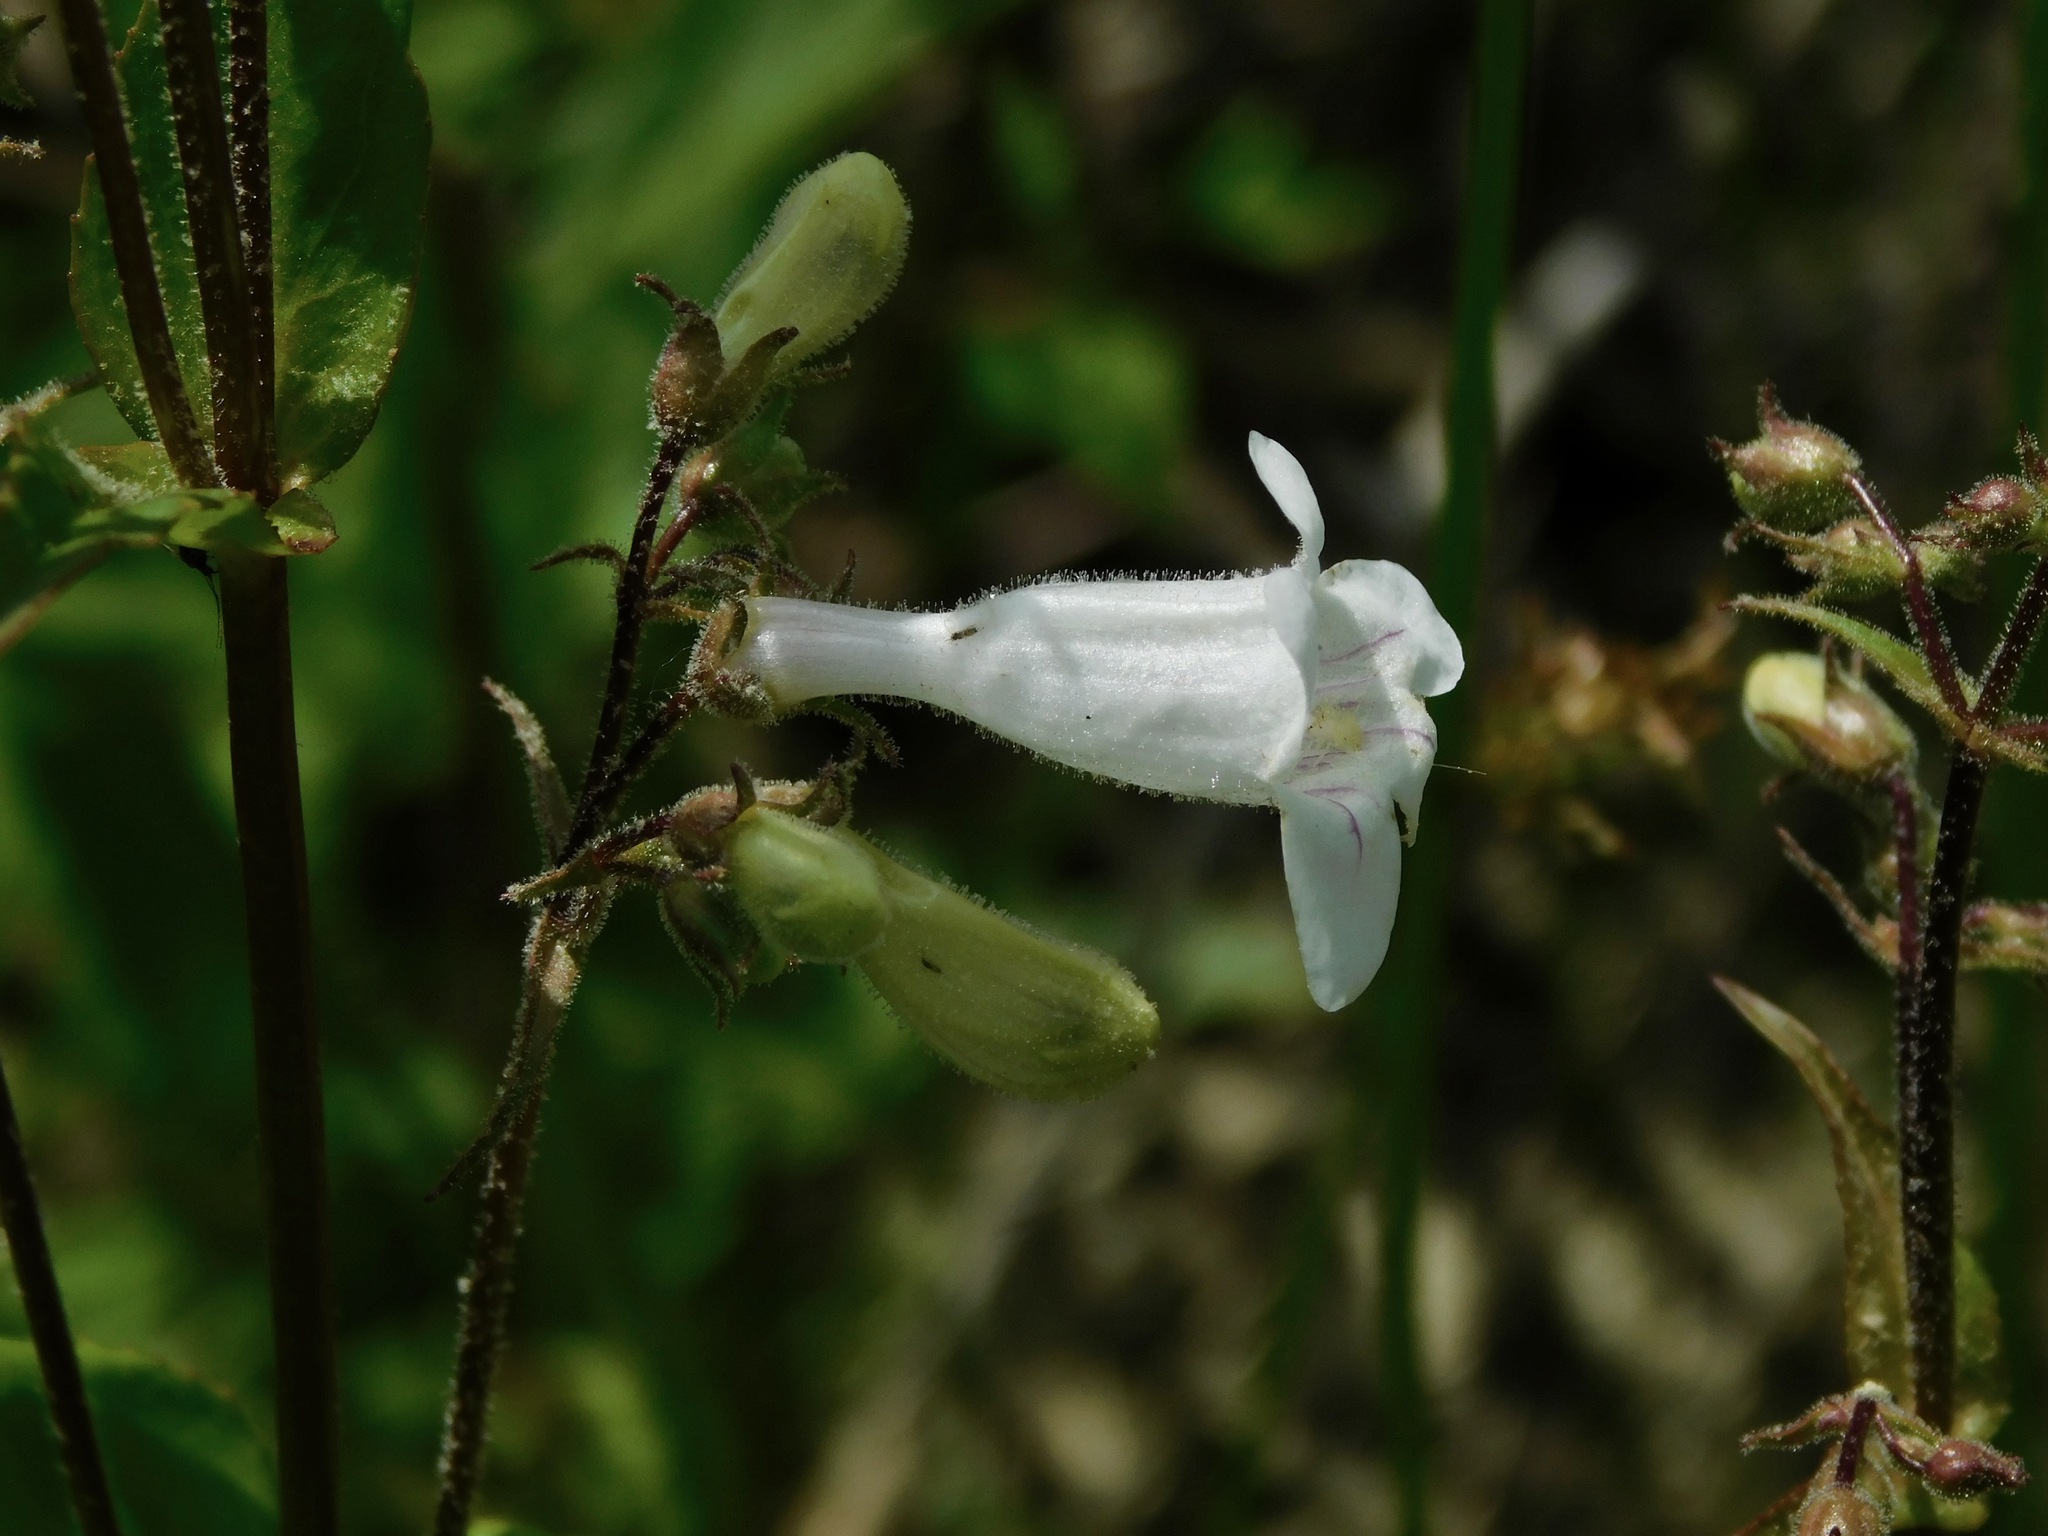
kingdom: Plantae
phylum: Tracheophyta
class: Magnoliopsida
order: Lamiales
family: Plantaginaceae
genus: Penstemon
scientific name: Penstemon digitalis
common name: Foxglove beardtongue
